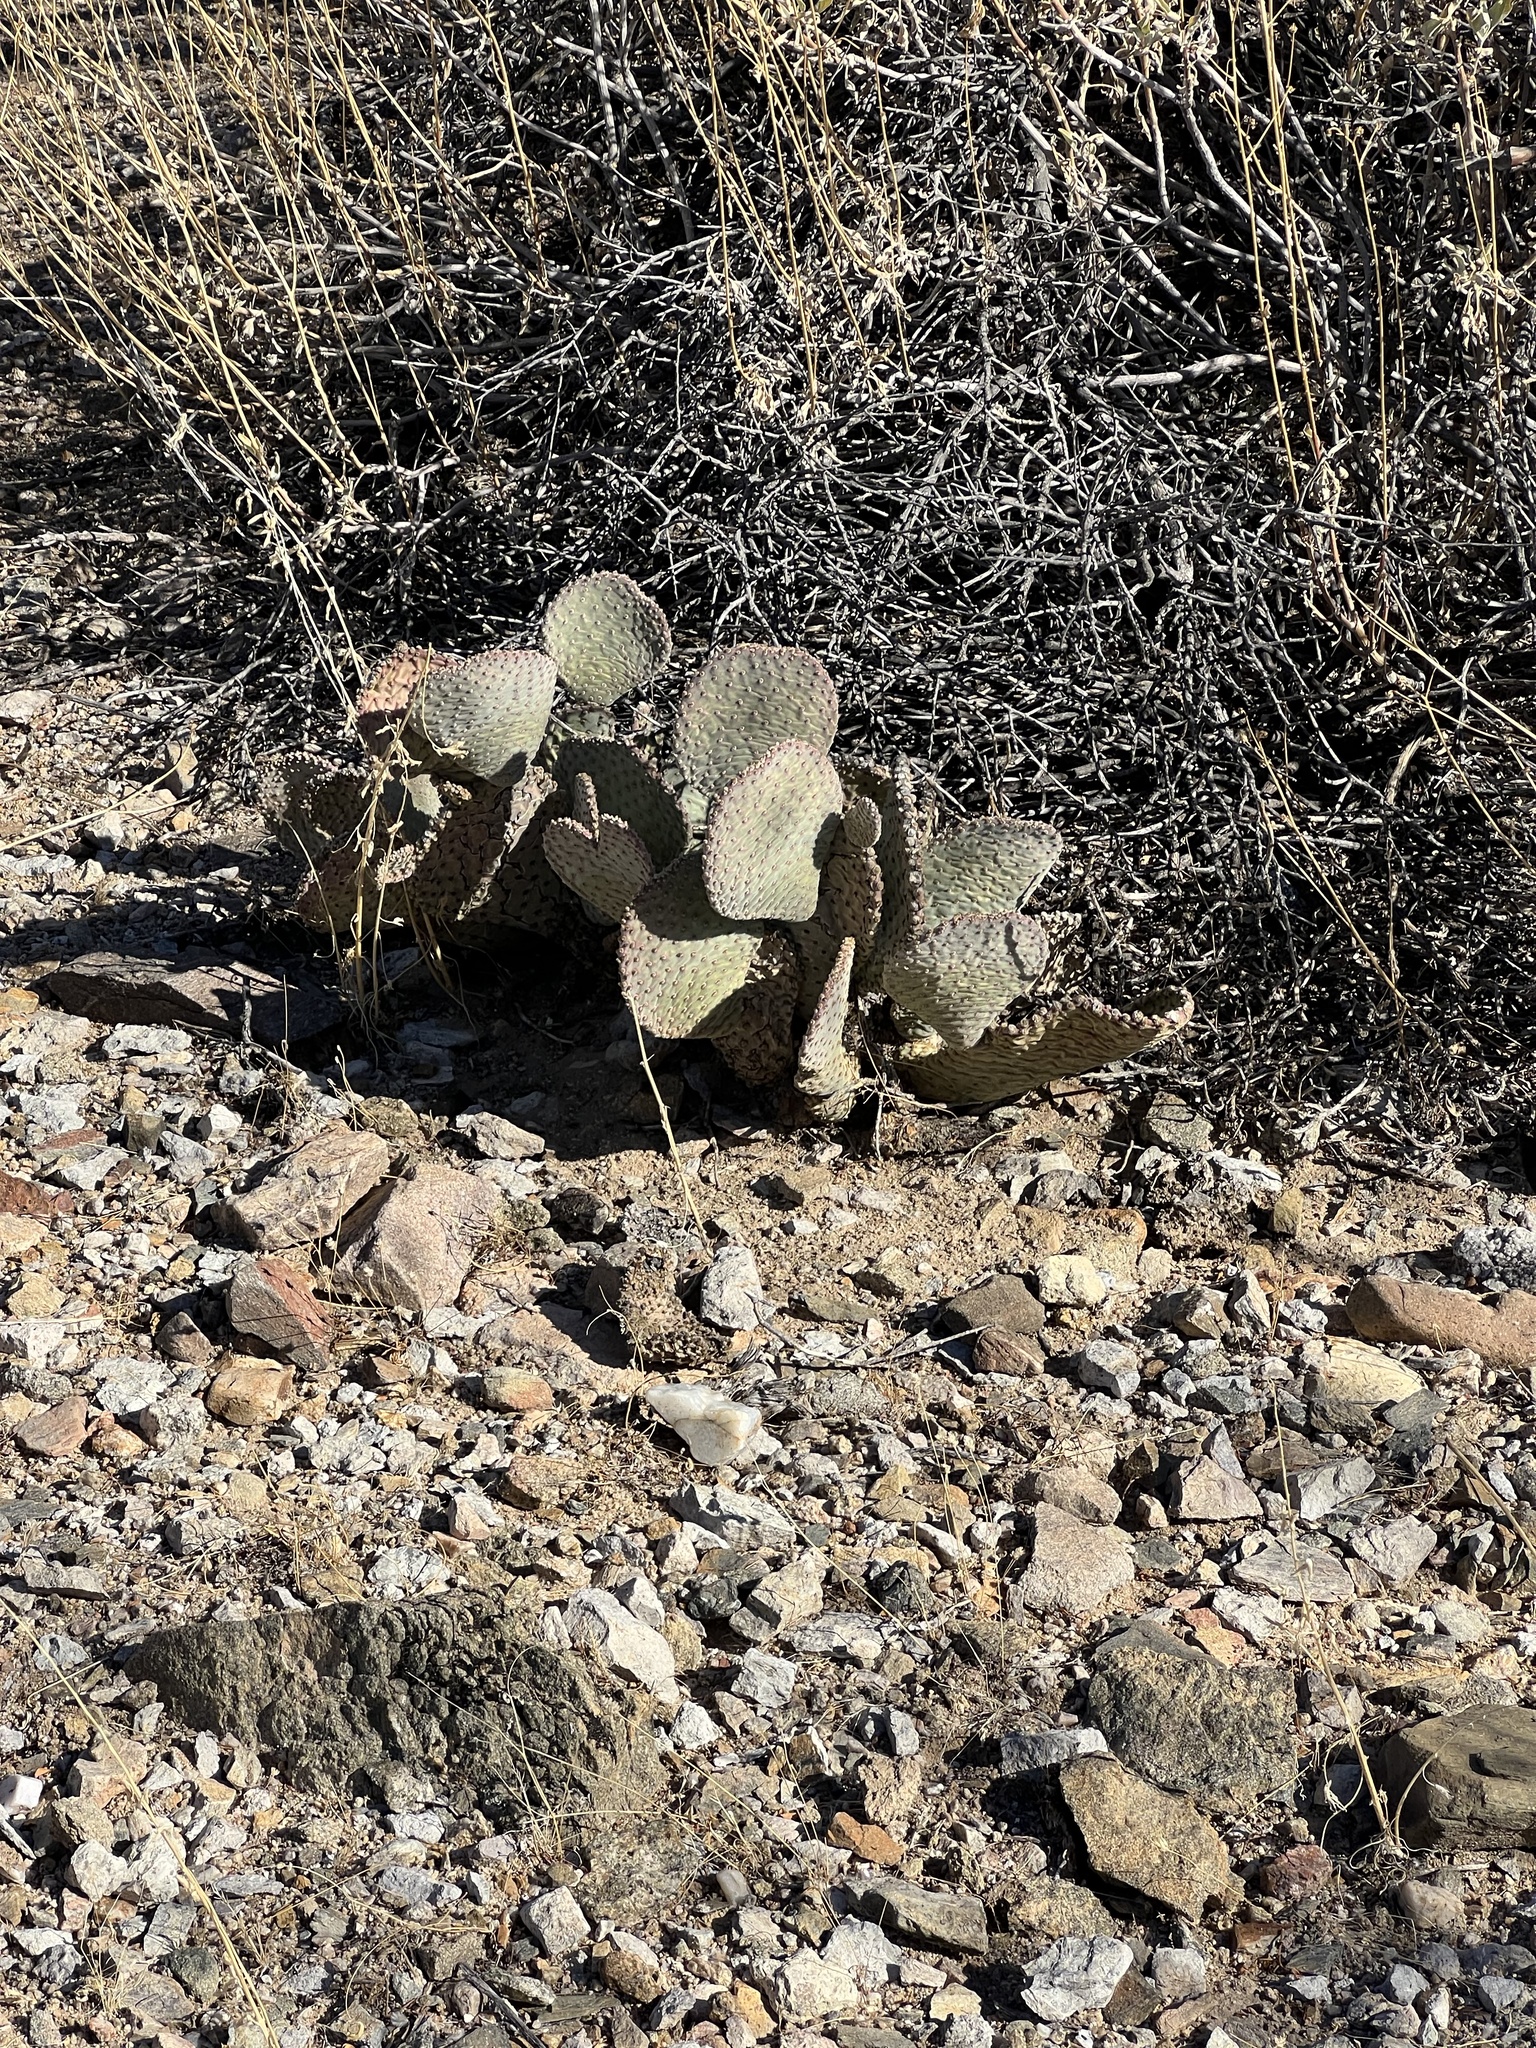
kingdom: Plantae
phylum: Tracheophyta
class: Magnoliopsida
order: Caryophyllales
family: Cactaceae
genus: Opuntia
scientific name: Opuntia basilaris
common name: Beavertail prickly-pear
